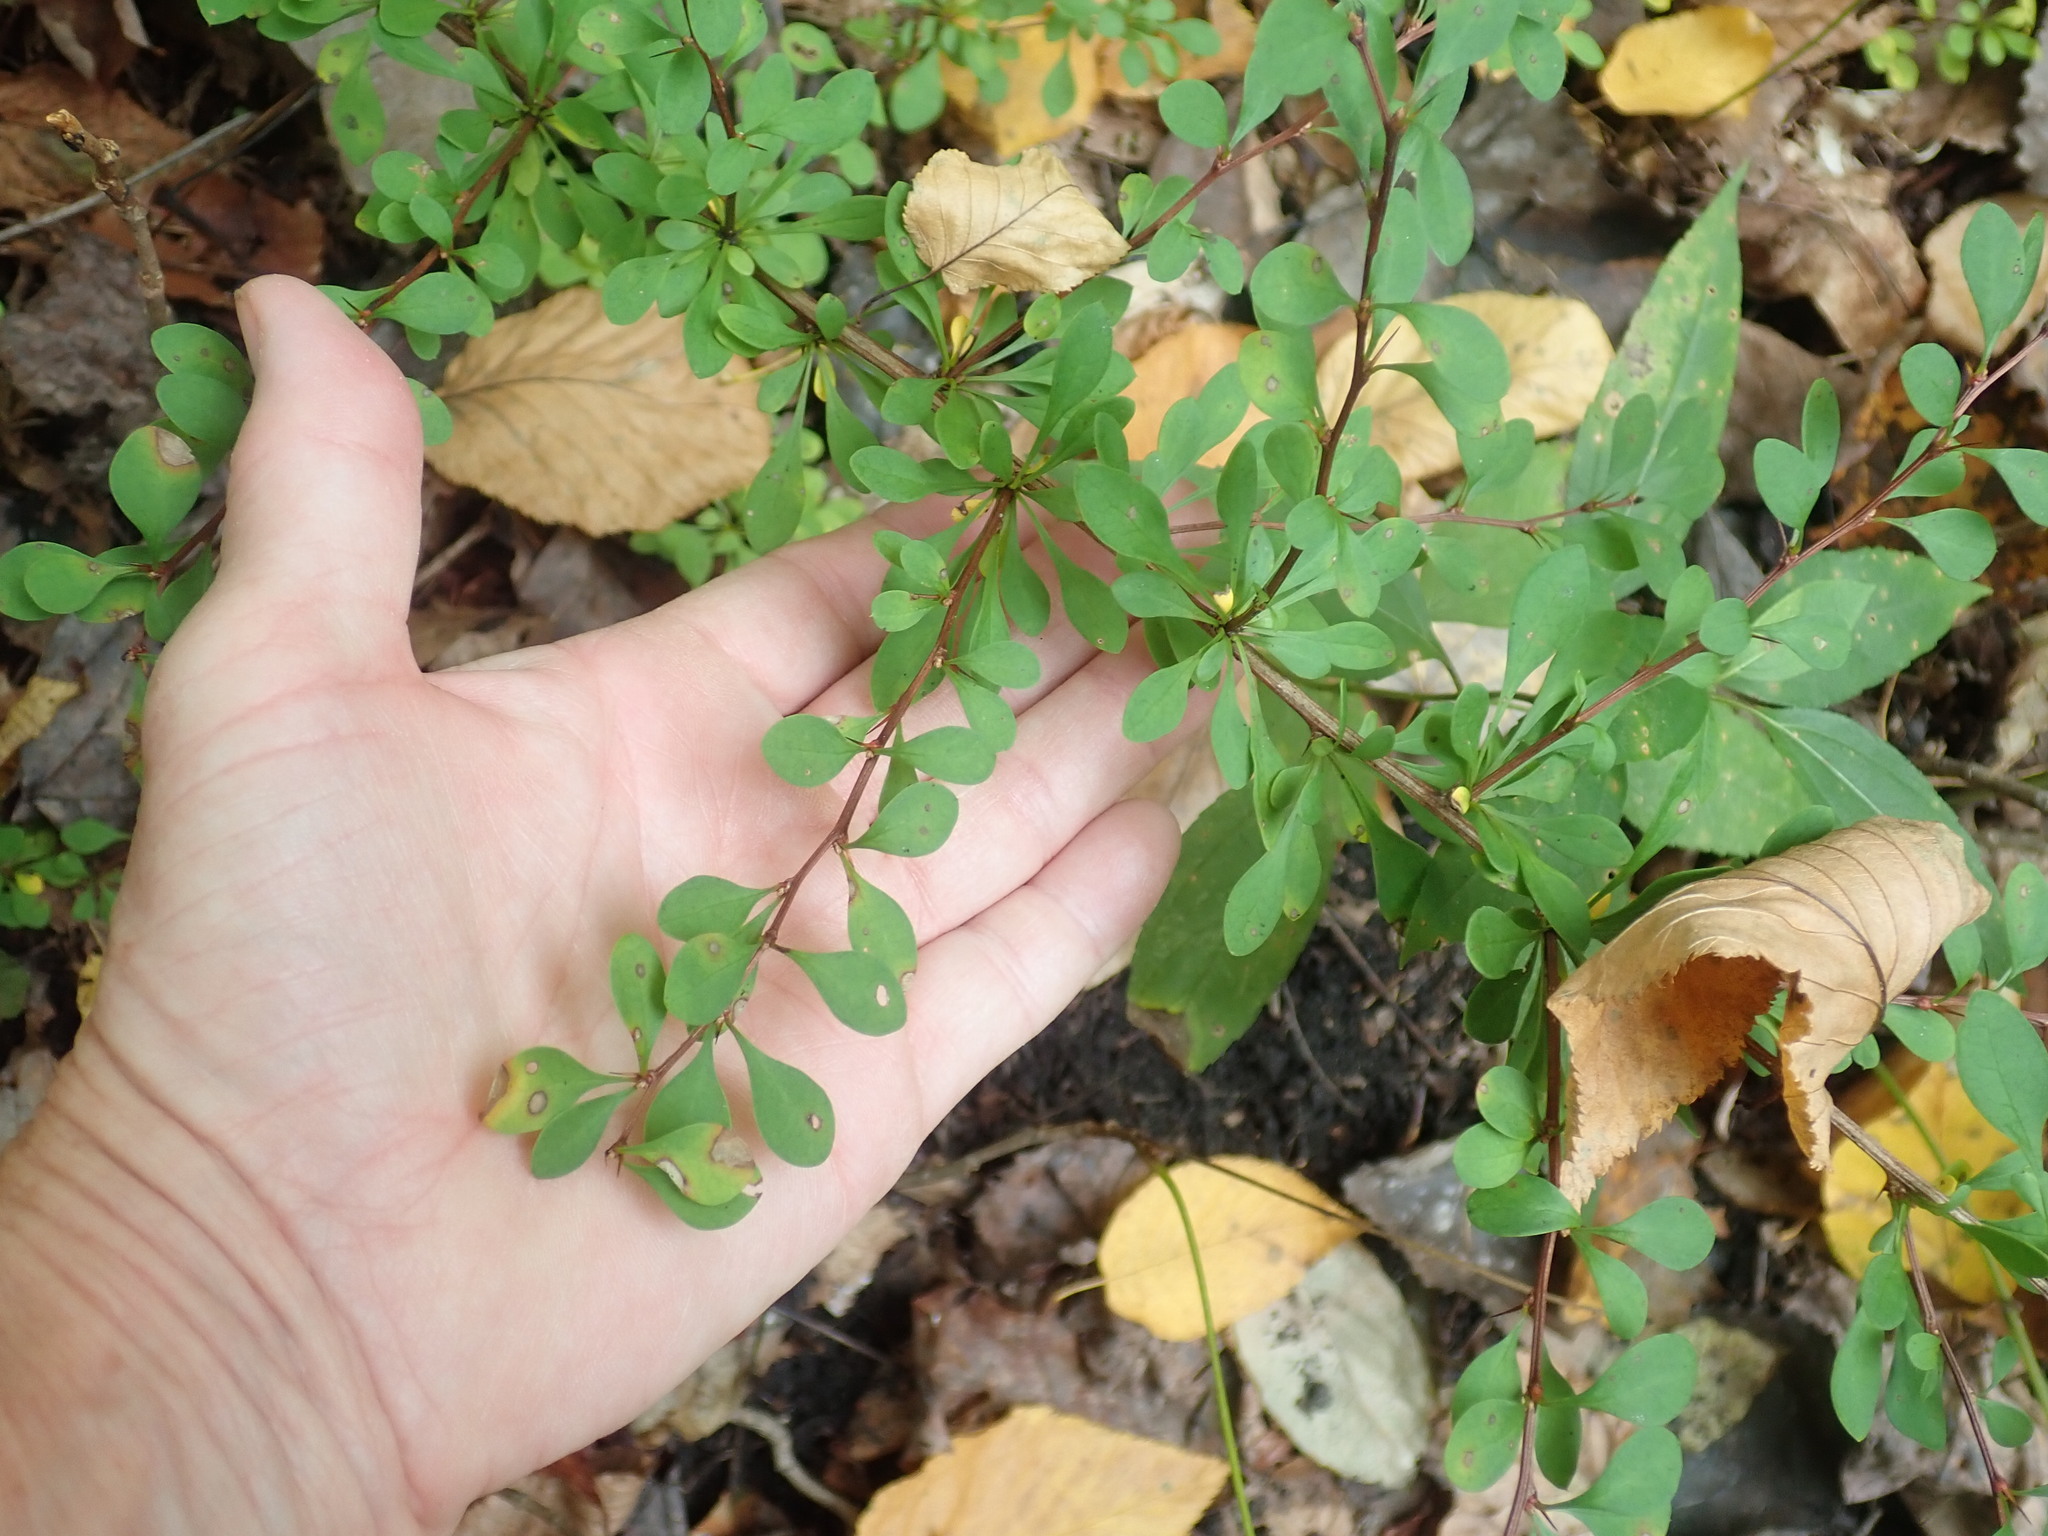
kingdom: Plantae
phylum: Tracheophyta
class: Magnoliopsida
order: Ranunculales
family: Berberidaceae
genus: Berberis
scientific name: Berberis thunbergii
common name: Japanese barberry
